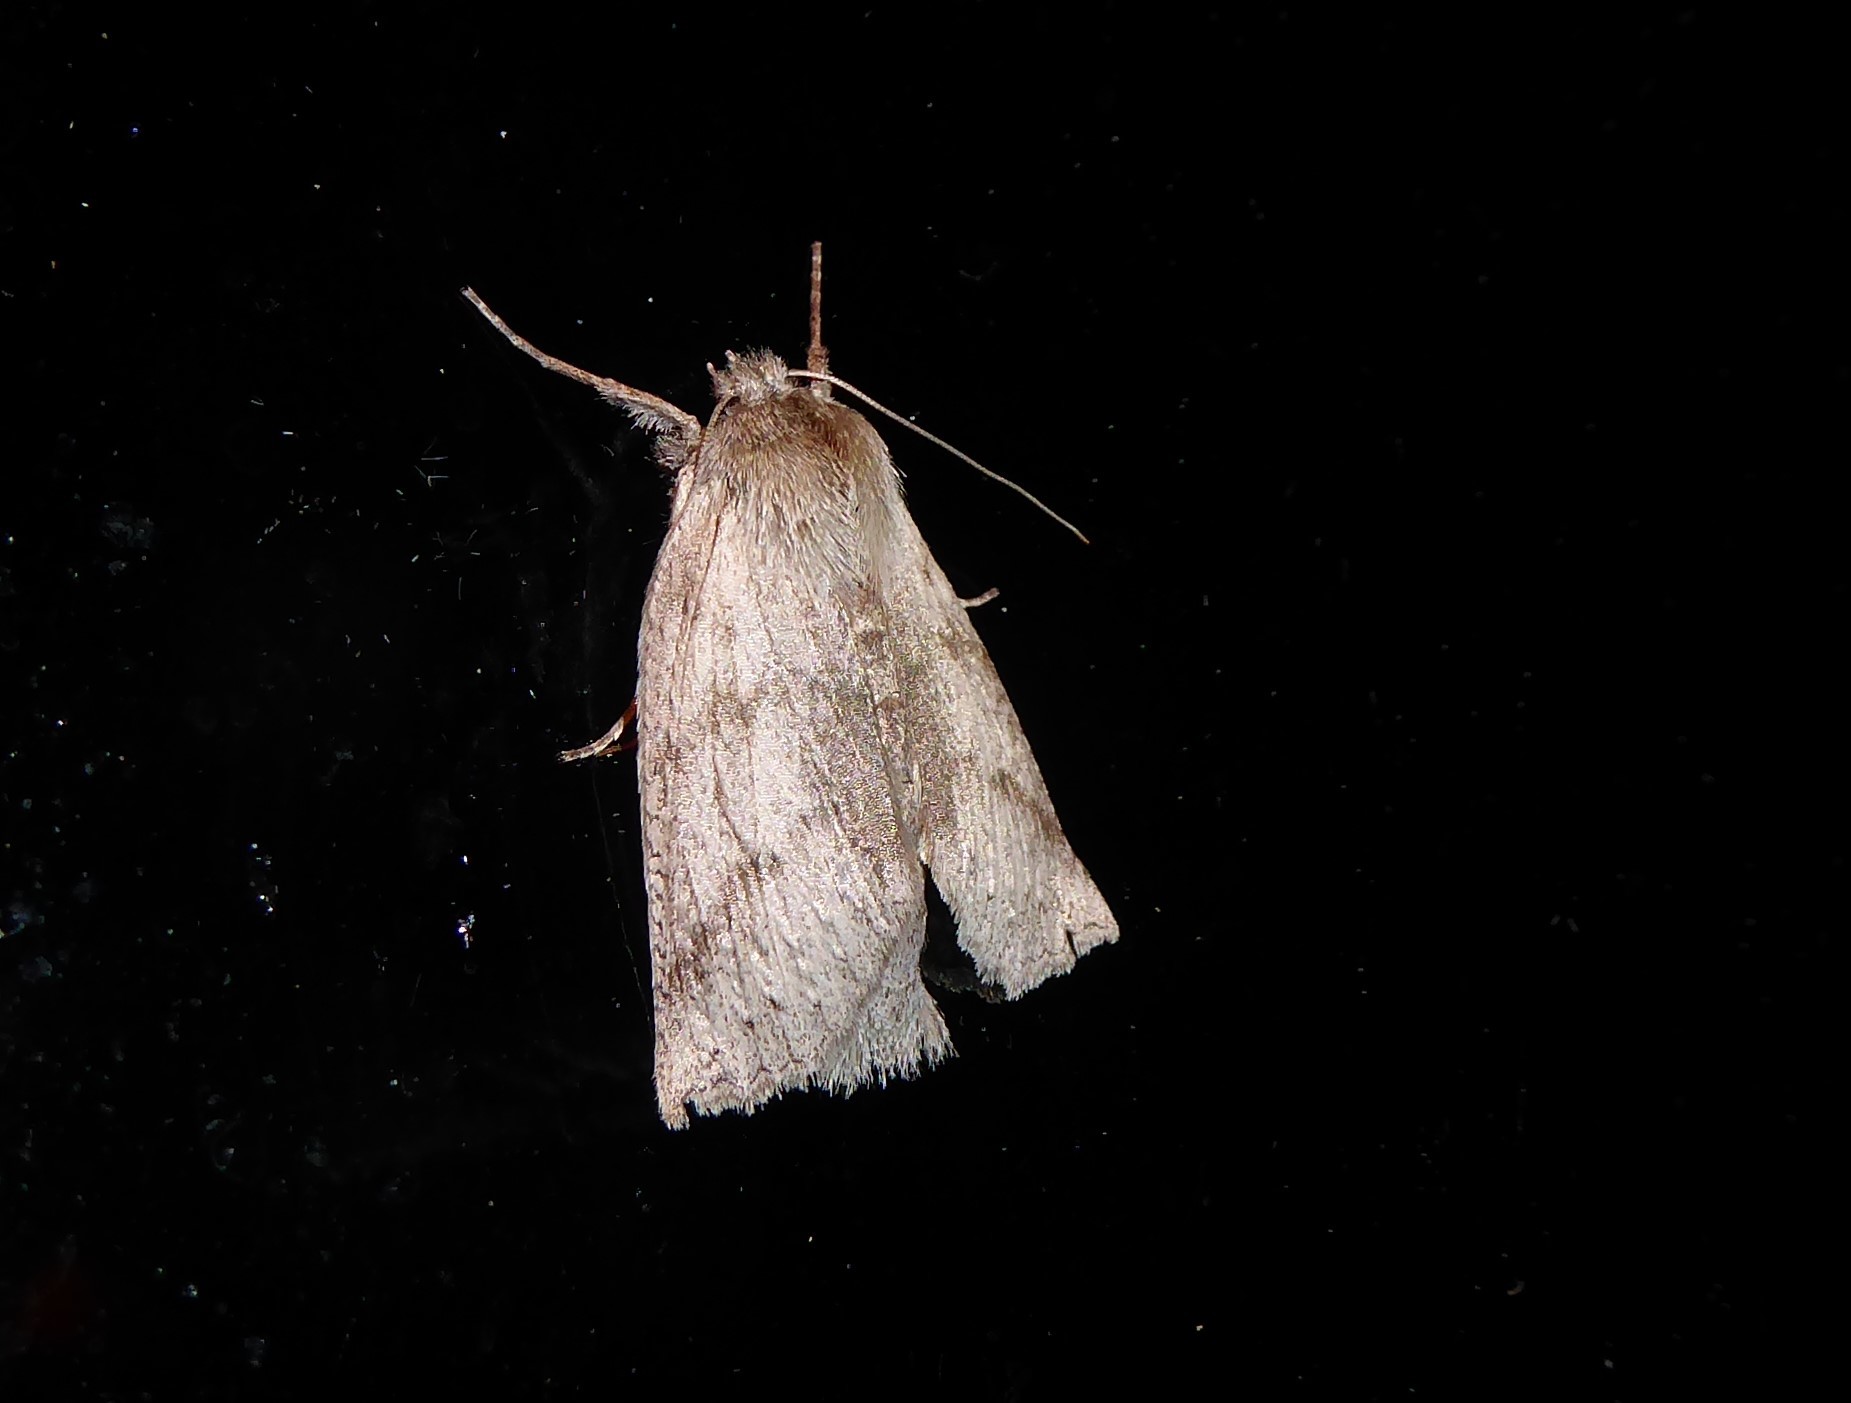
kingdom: Animalia
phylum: Arthropoda
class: Insecta
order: Lepidoptera
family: Geometridae
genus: Declana
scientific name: Declana leptomera
